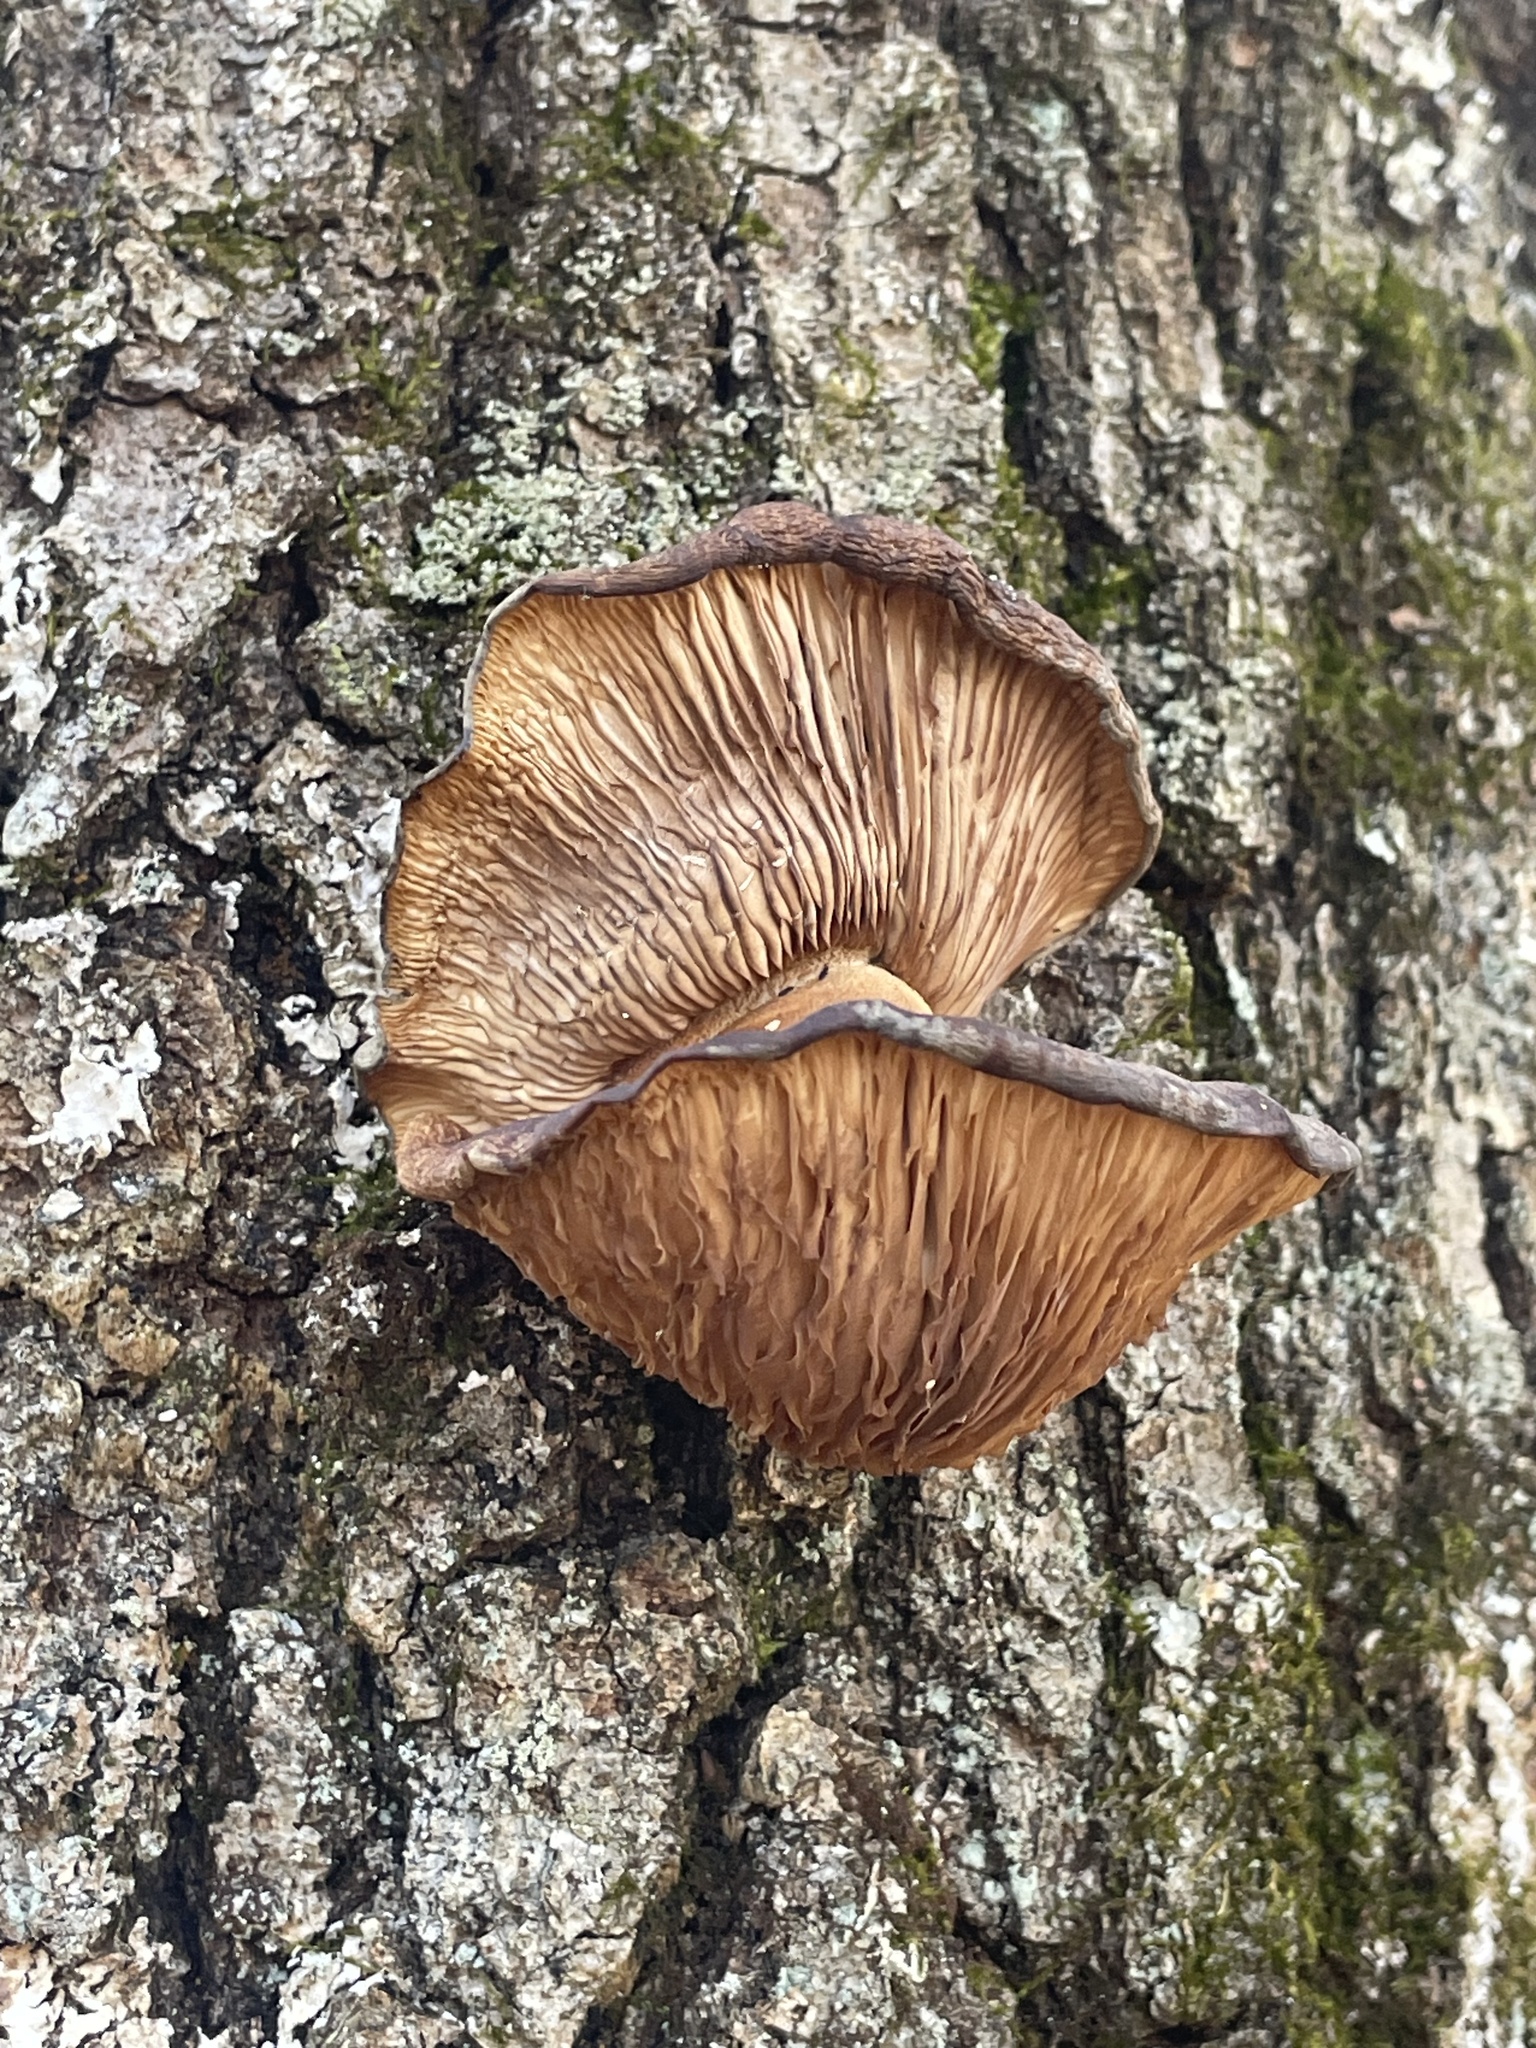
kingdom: Fungi
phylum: Basidiomycota
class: Agaricomycetes
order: Agaricales
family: Sarcomyxaceae
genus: Sarcomyxa
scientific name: Sarcomyxa serotina
